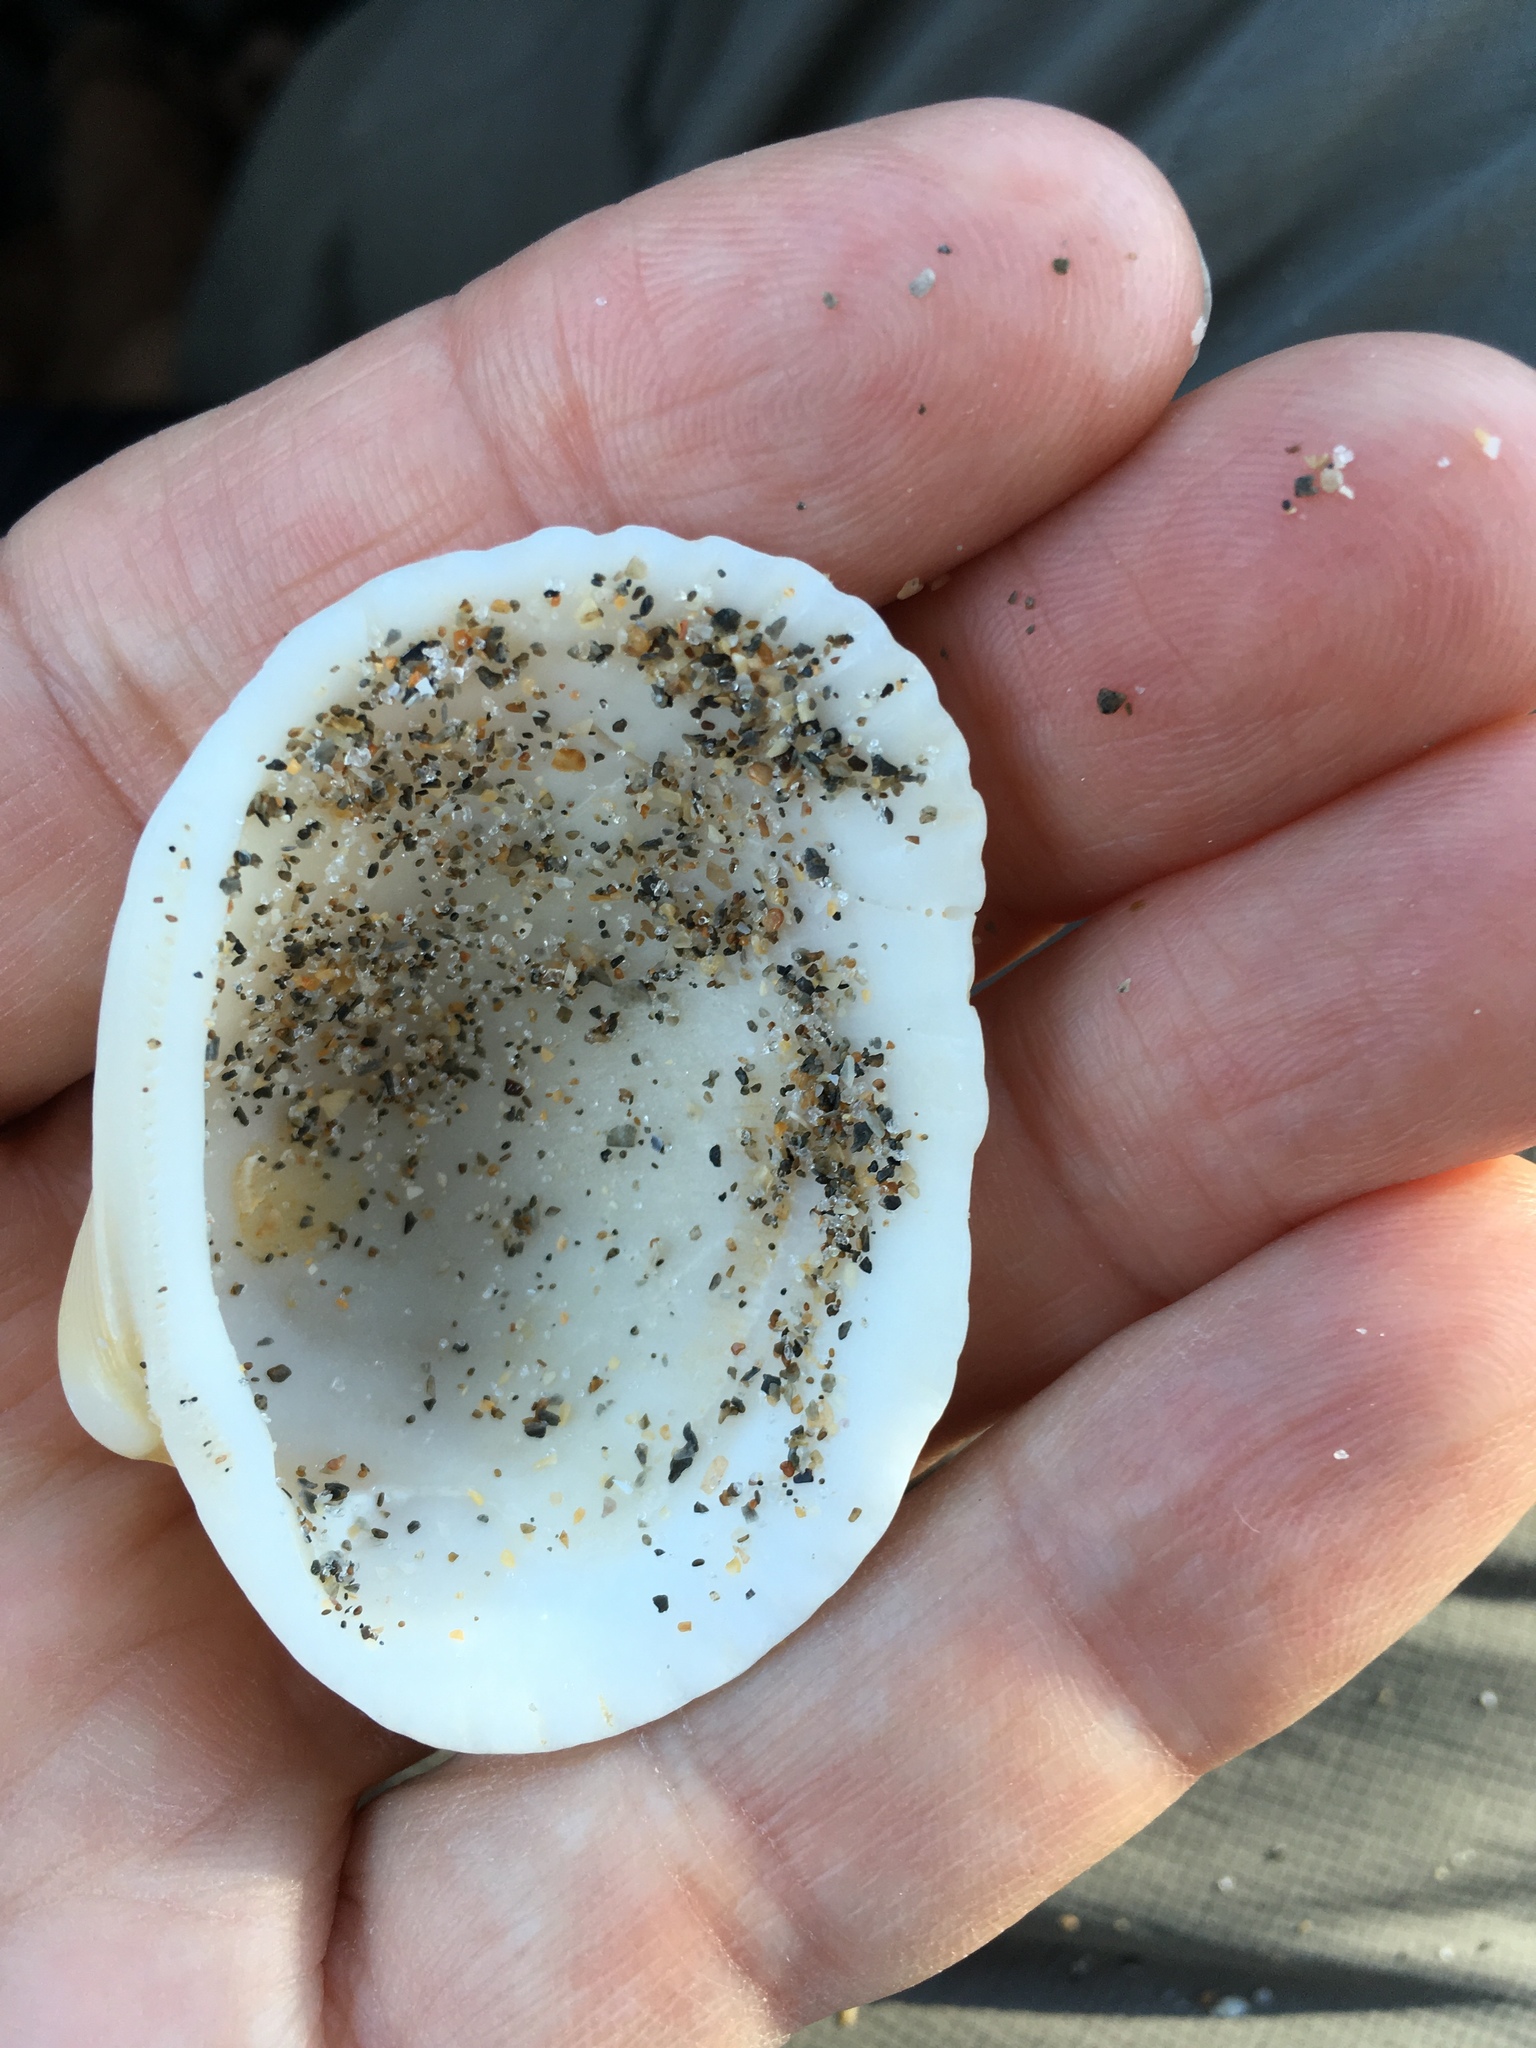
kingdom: Animalia
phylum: Mollusca
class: Bivalvia
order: Arcida
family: Arcidae
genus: Lunarca
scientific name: Lunarca ovalis
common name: Blood ark
